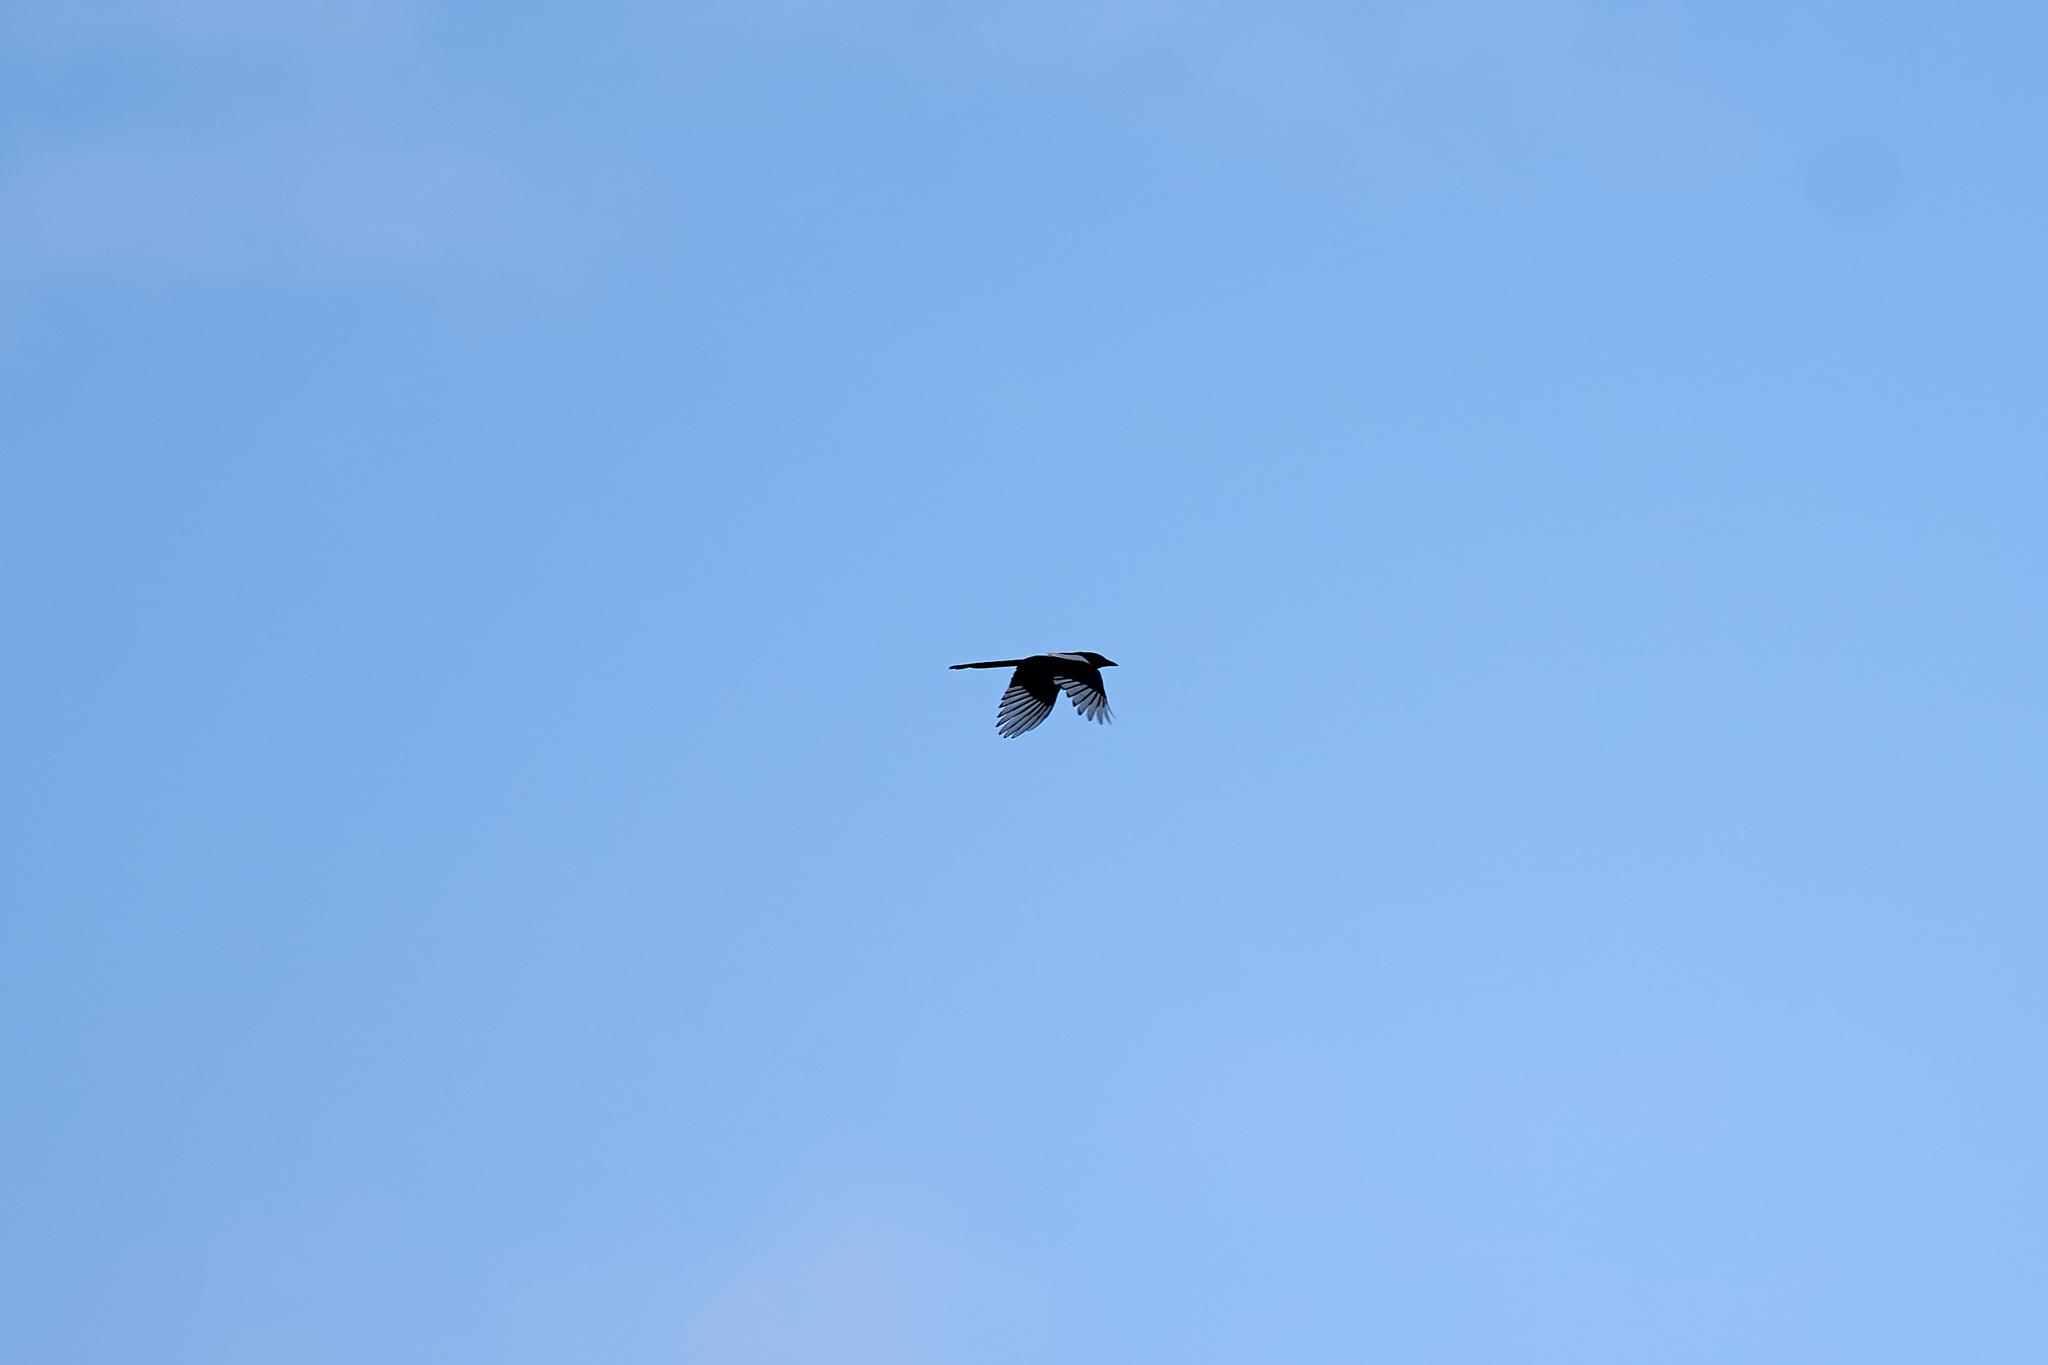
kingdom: Animalia
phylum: Chordata
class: Aves
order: Passeriformes
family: Corvidae
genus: Pica
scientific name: Pica pica
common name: Eurasian magpie
